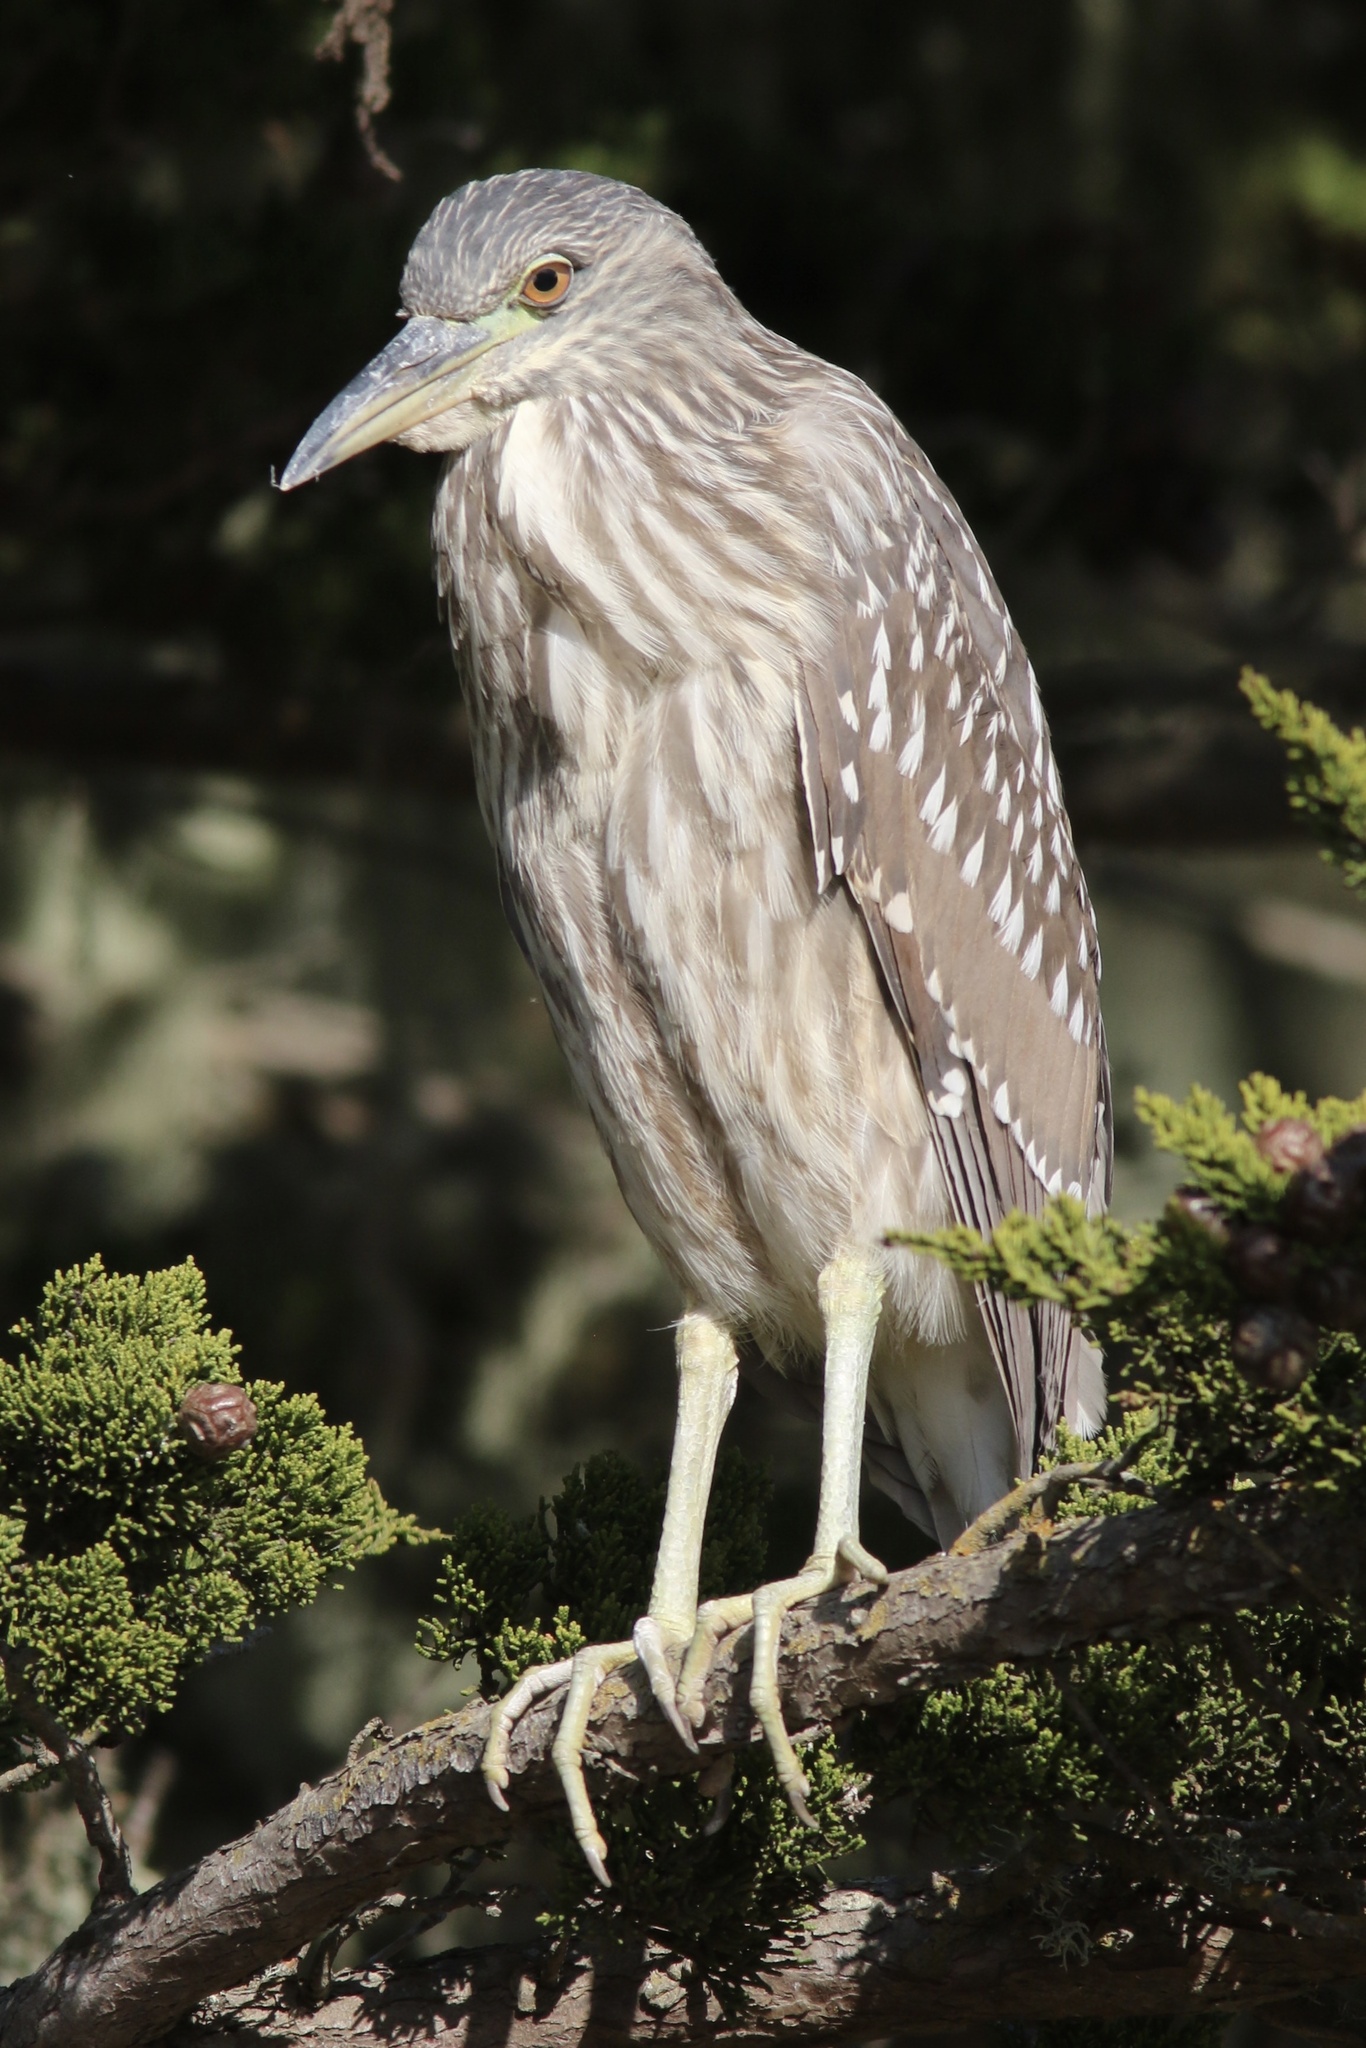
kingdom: Animalia
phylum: Chordata
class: Aves
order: Pelecaniformes
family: Ardeidae
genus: Nycticorax
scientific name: Nycticorax nycticorax
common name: Black-crowned night heron
